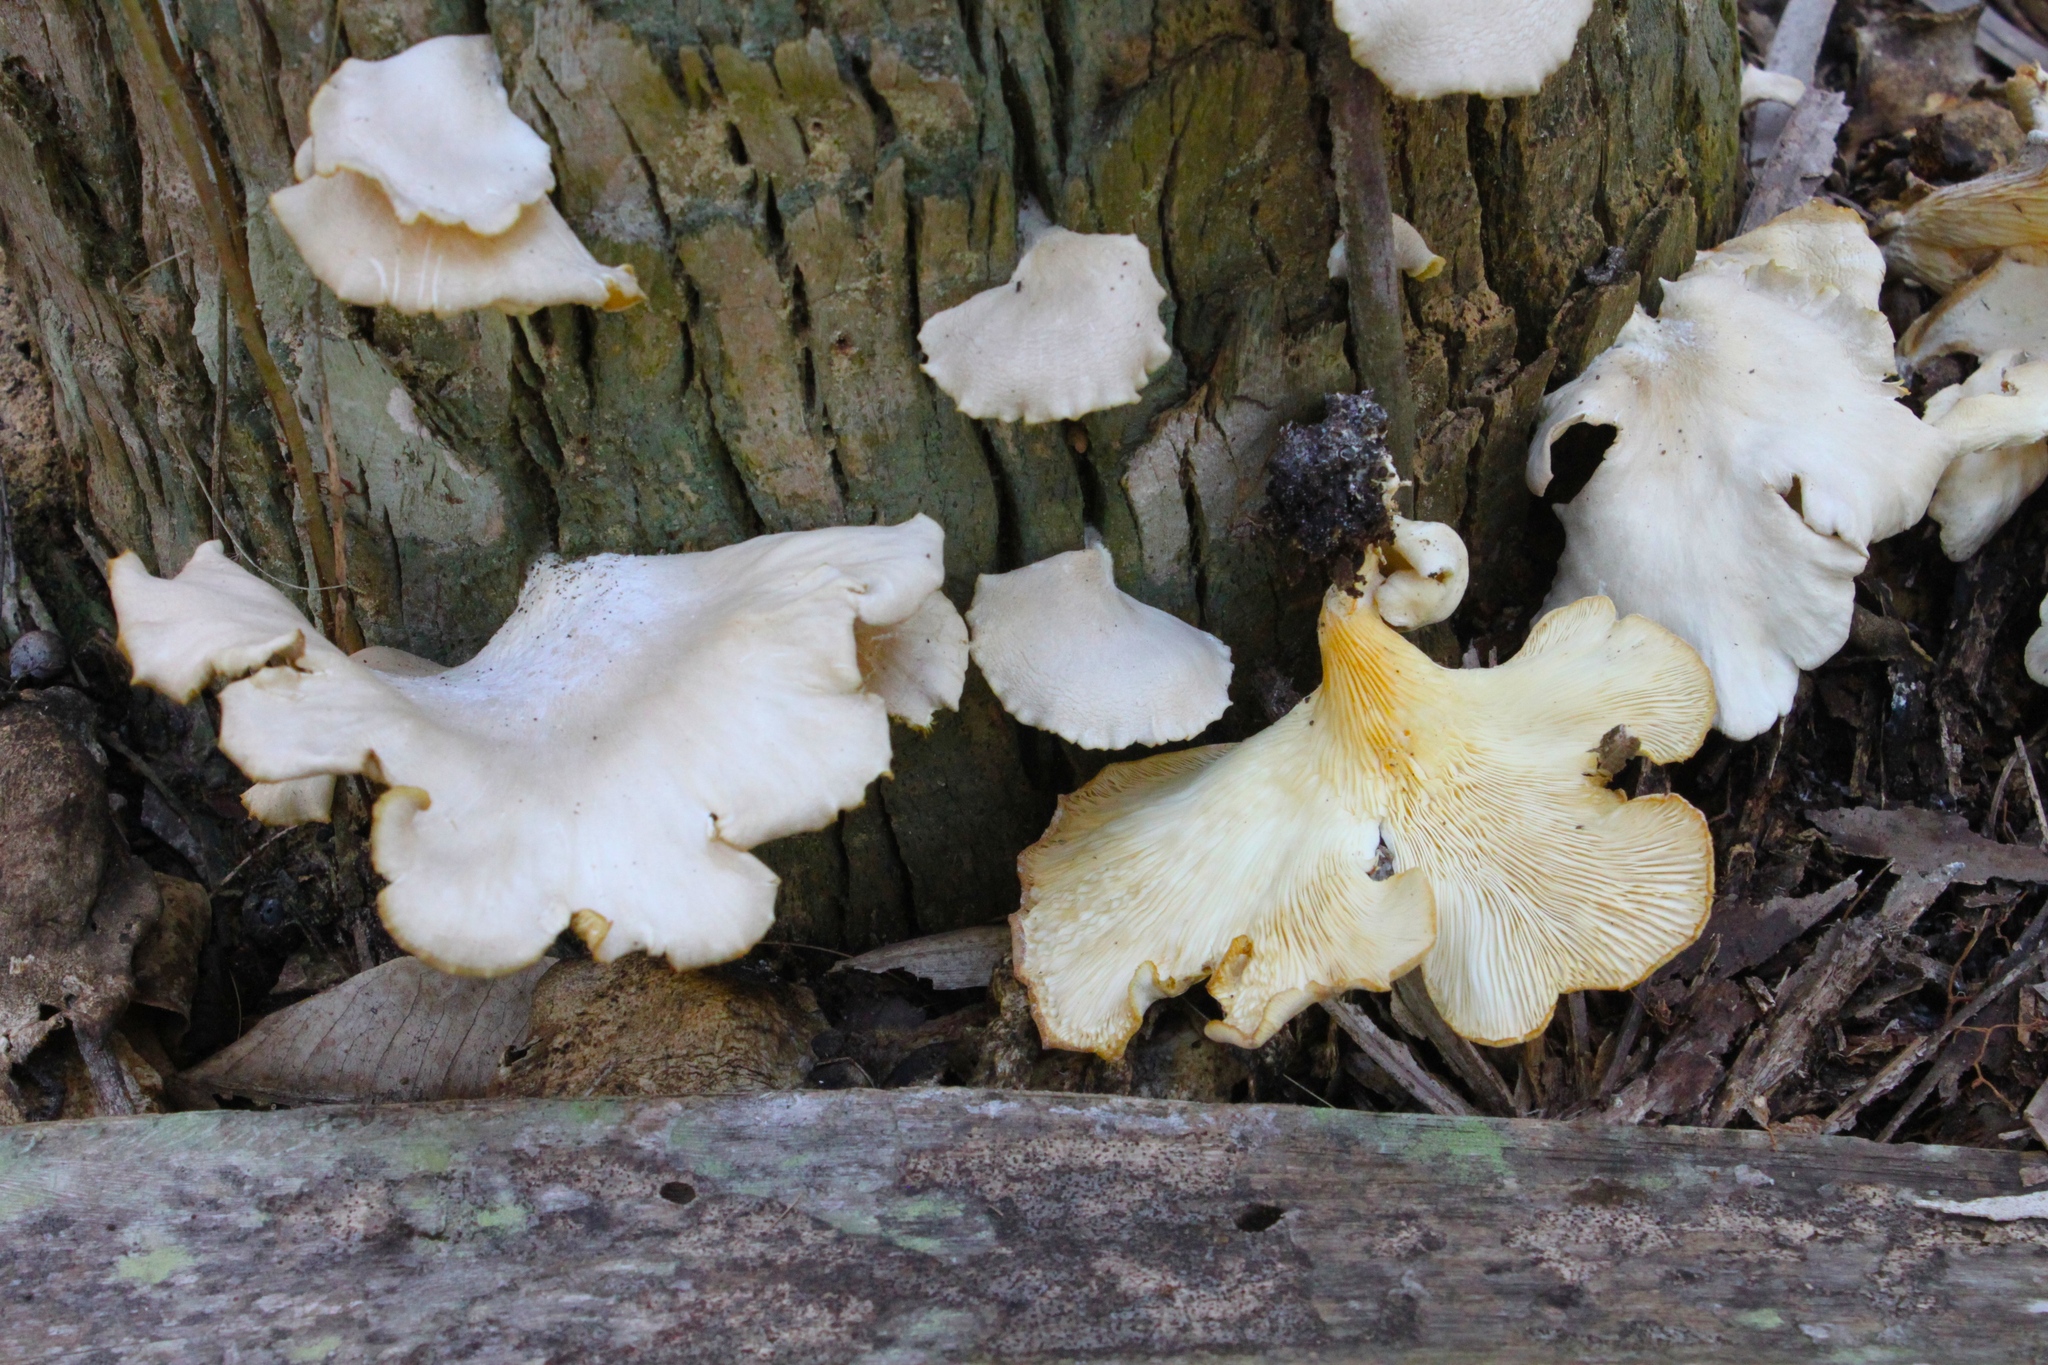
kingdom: Fungi
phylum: Basidiomycota
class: Agaricomycetes
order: Agaricales
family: Pleurotaceae
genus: Pleurotus
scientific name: Pleurotus ostreatus
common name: Oyster mushroom
